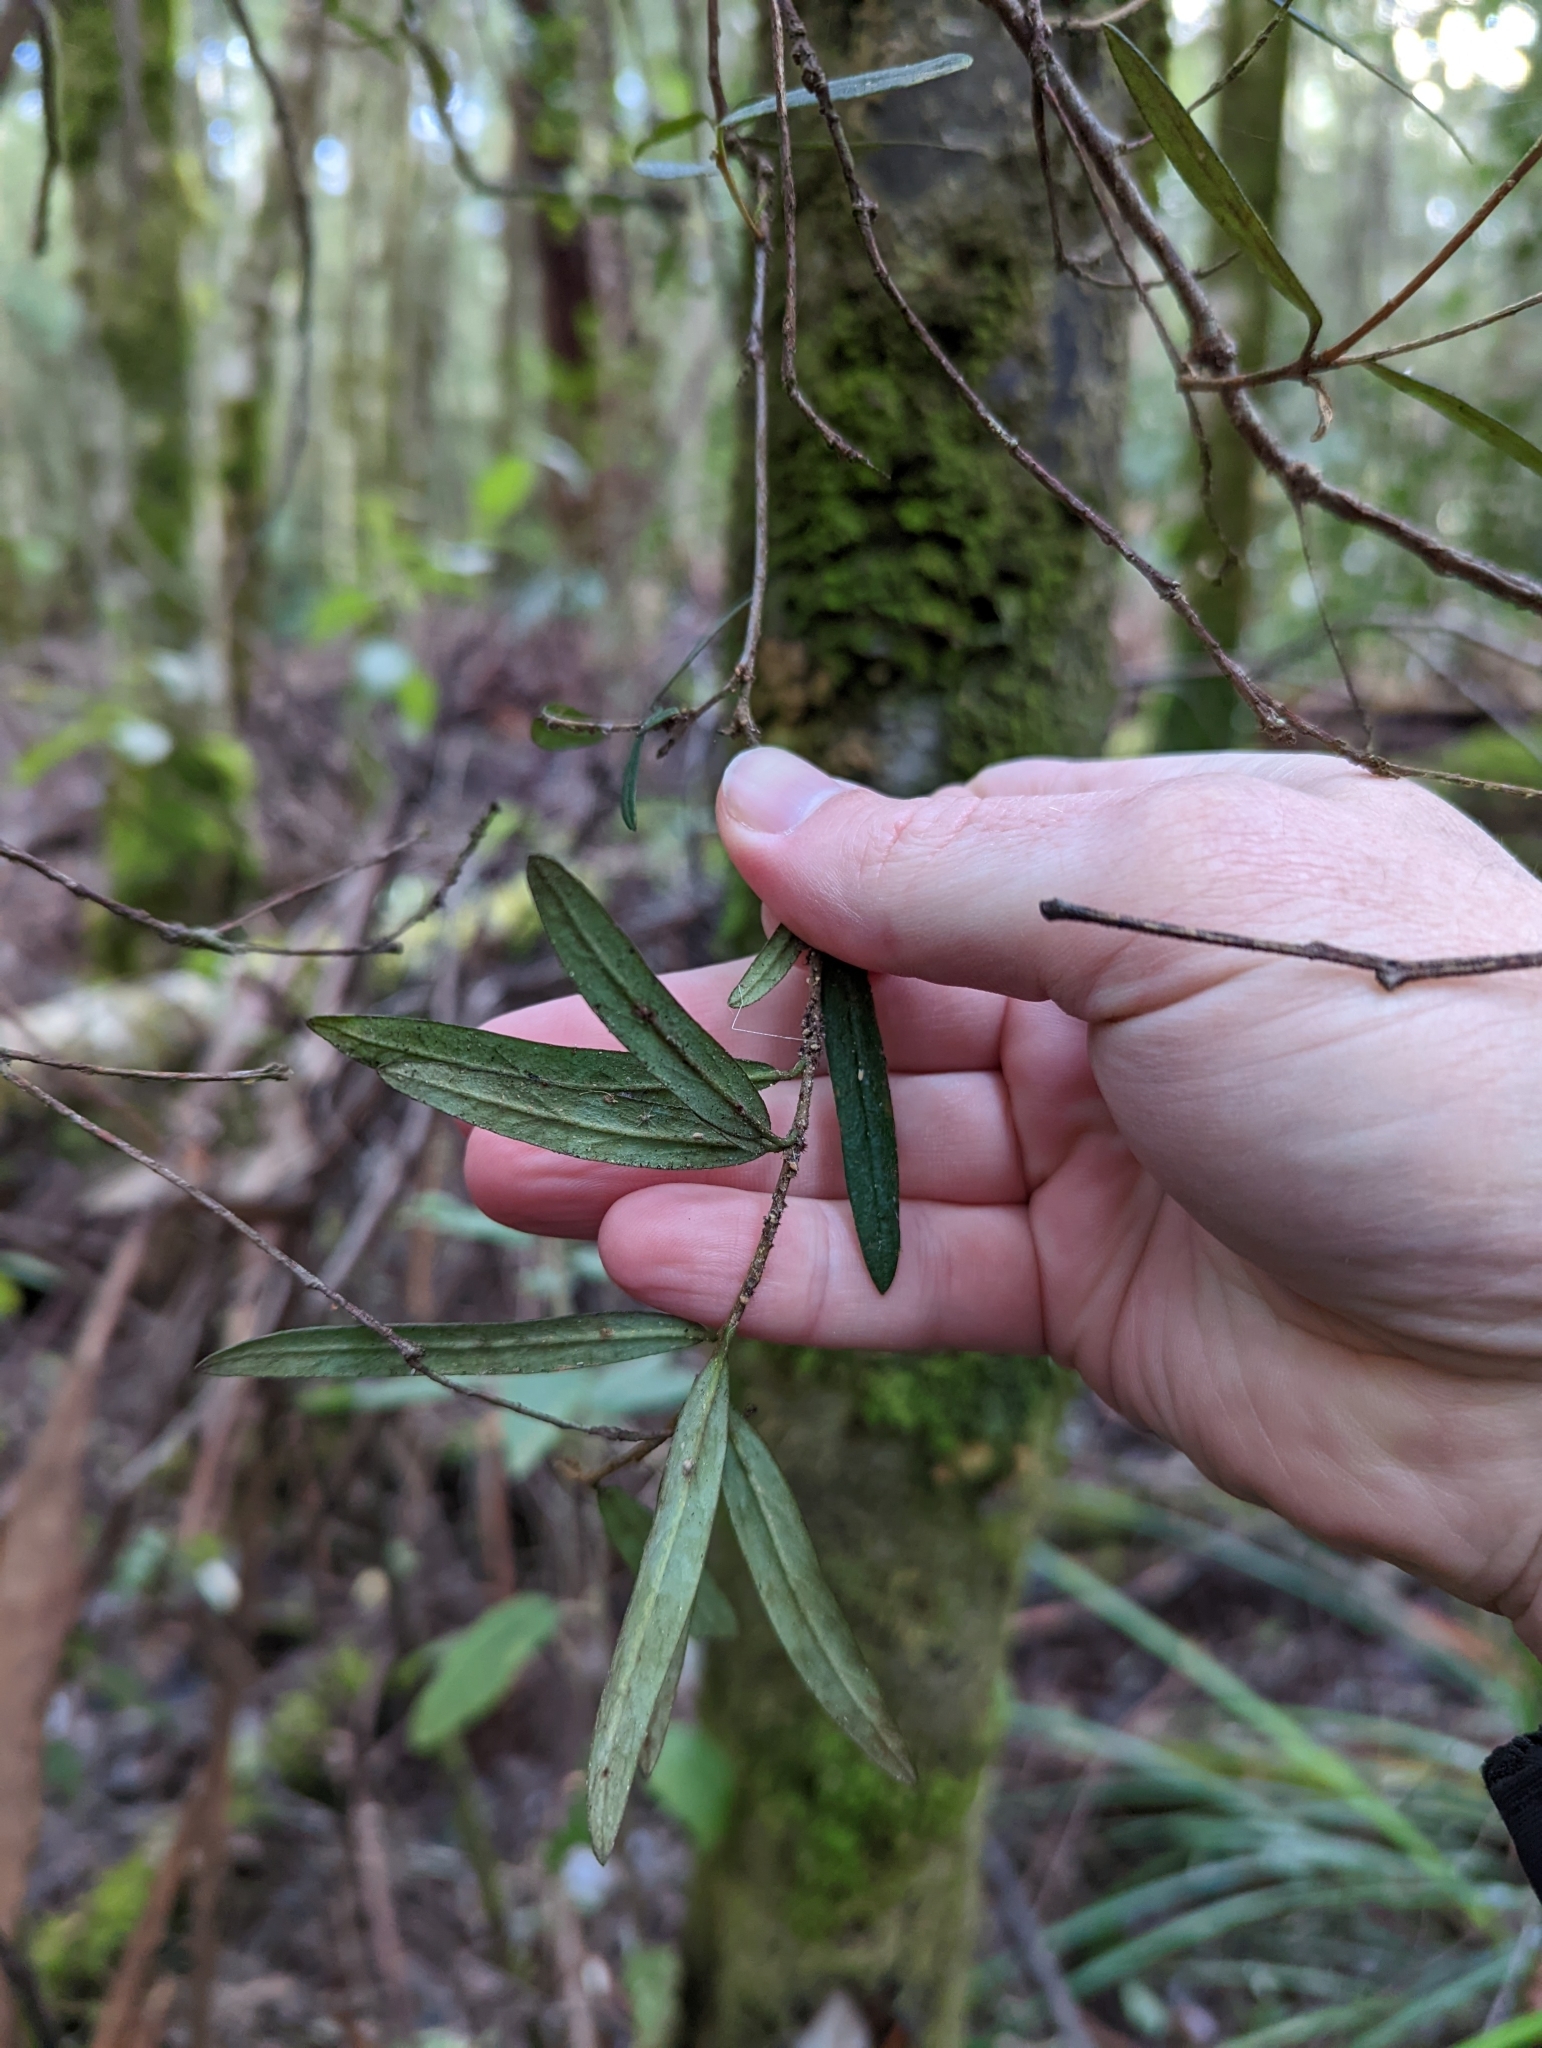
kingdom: Plantae
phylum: Tracheophyta
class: Magnoliopsida
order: Apiales
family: Pittosporaceae
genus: Pittosporum
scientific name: Pittosporum bicolor
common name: Tallowwood
